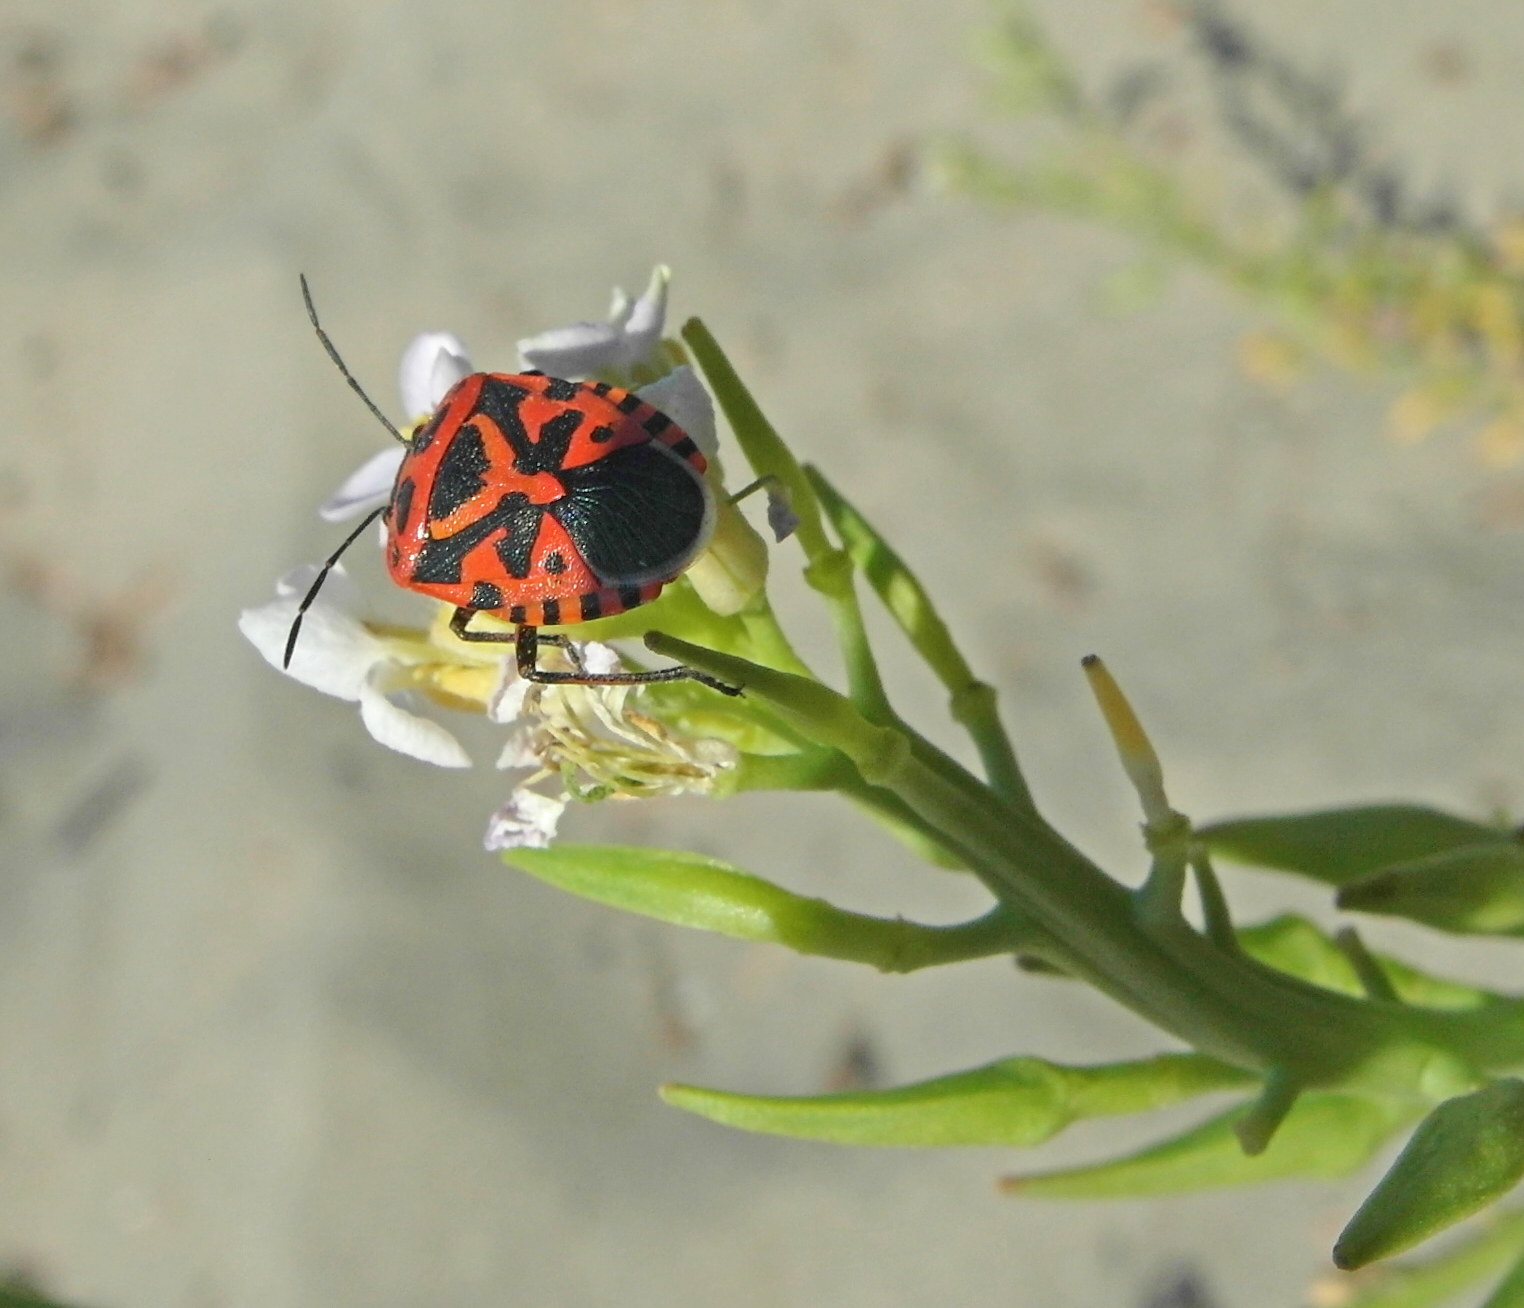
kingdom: Animalia
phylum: Arthropoda
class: Insecta
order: Hemiptera
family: Pentatomidae
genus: Eurydema
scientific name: Eurydema ventralis
